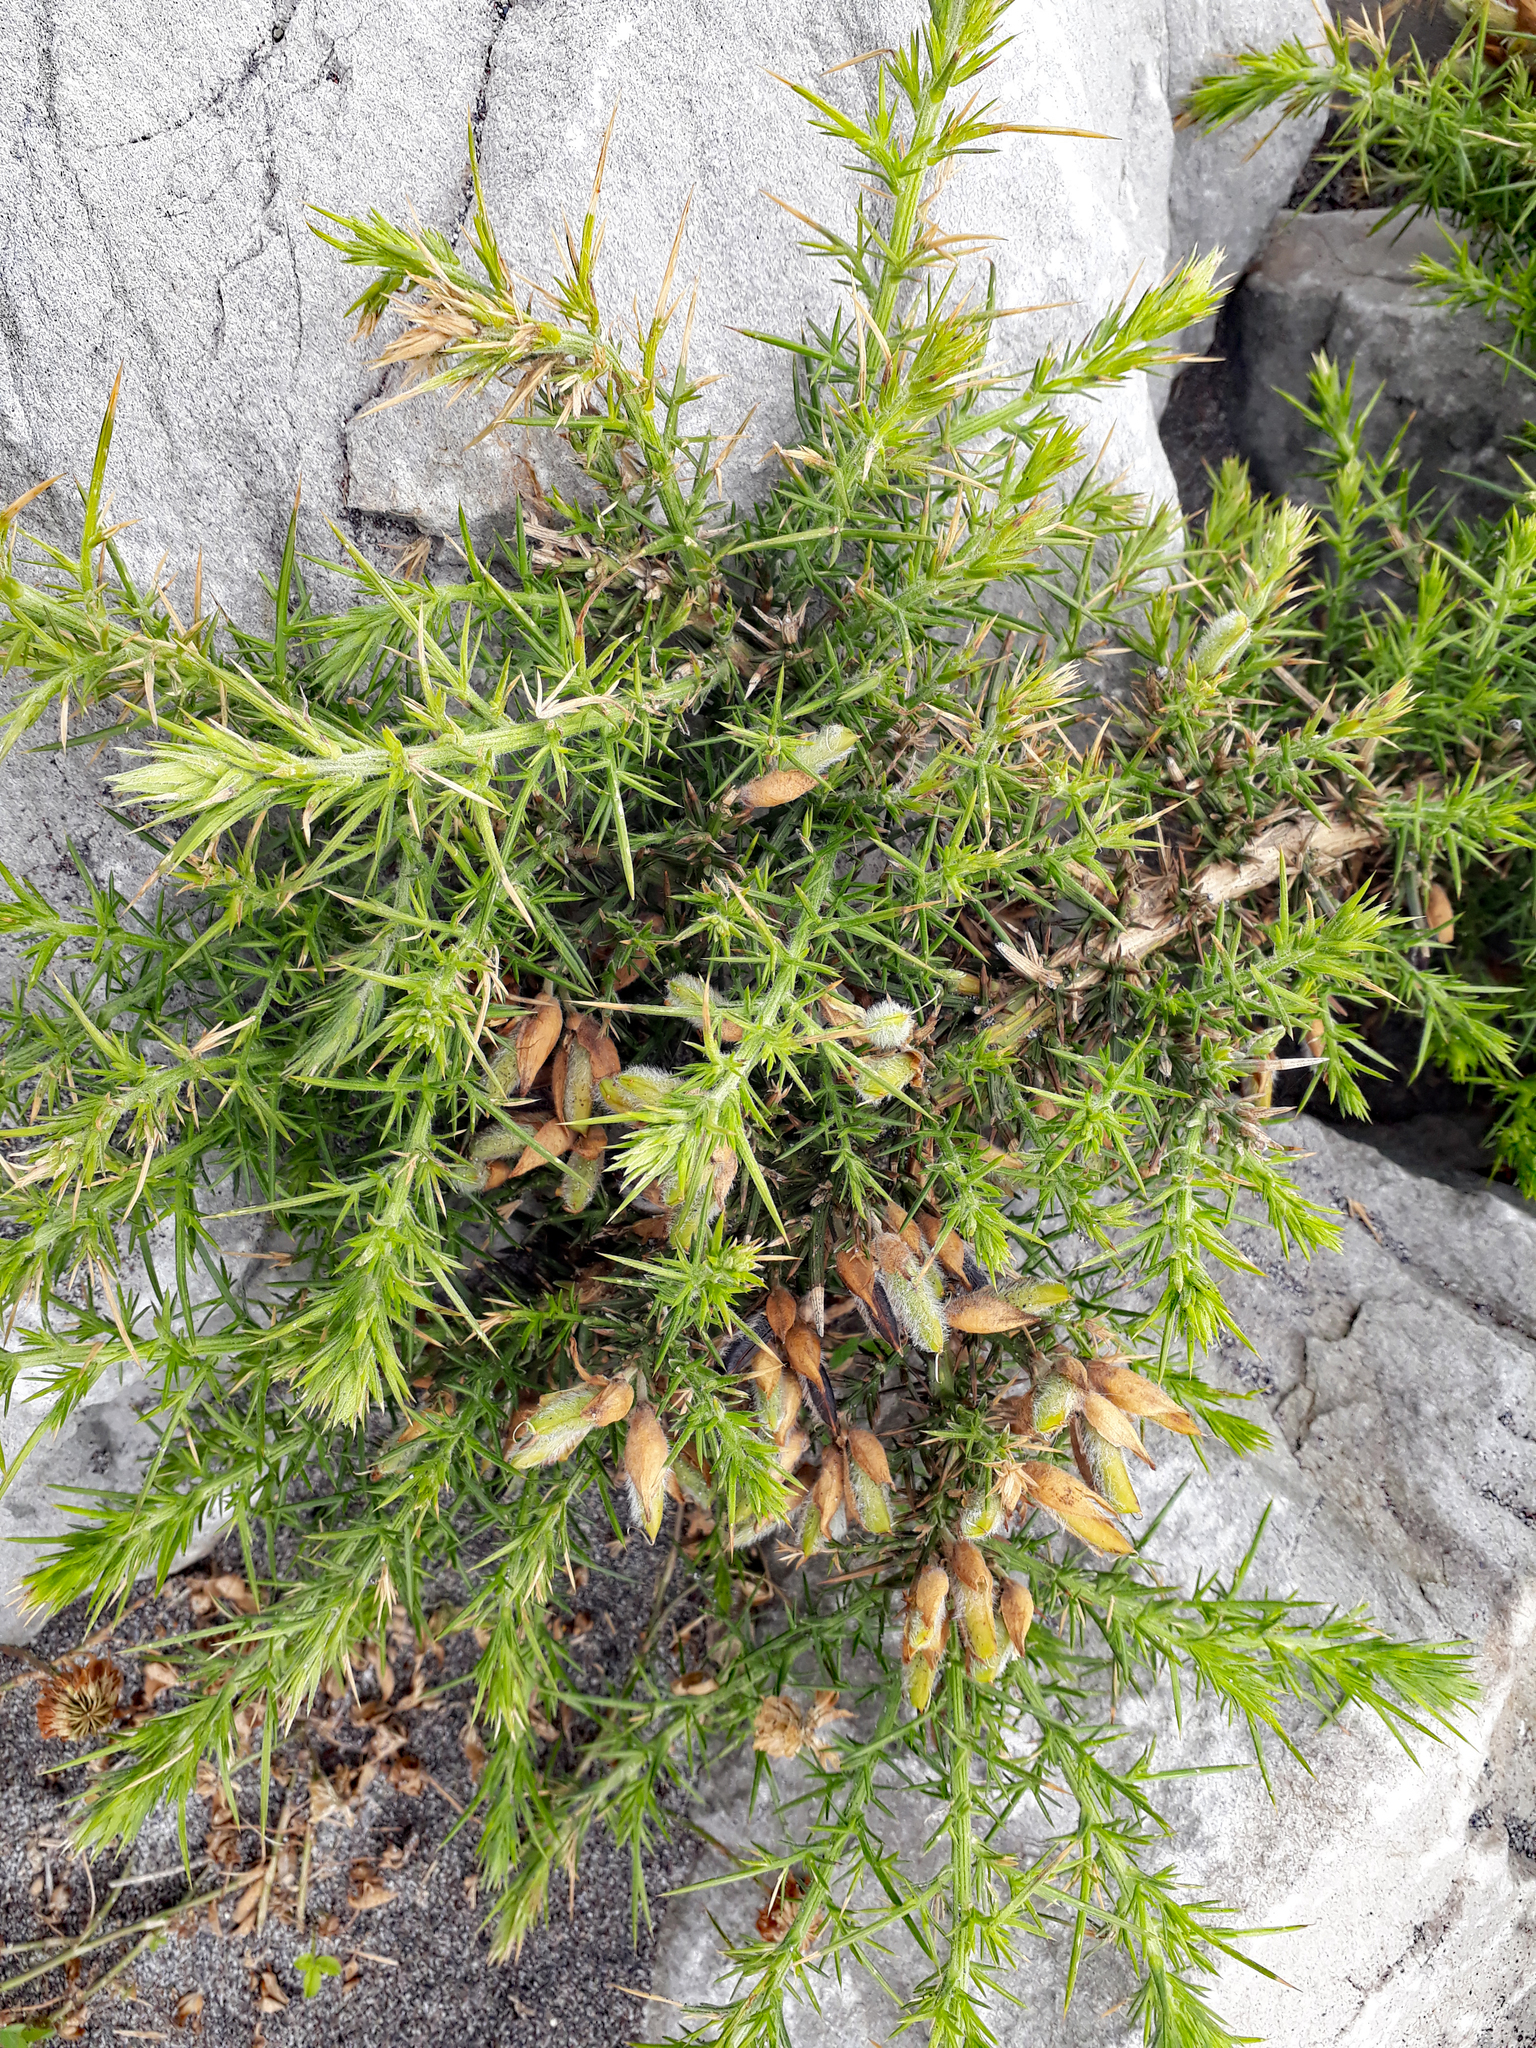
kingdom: Plantae
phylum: Tracheophyta
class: Magnoliopsida
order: Fabales
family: Fabaceae
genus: Ulex
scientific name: Ulex europaeus
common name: Common gorse
